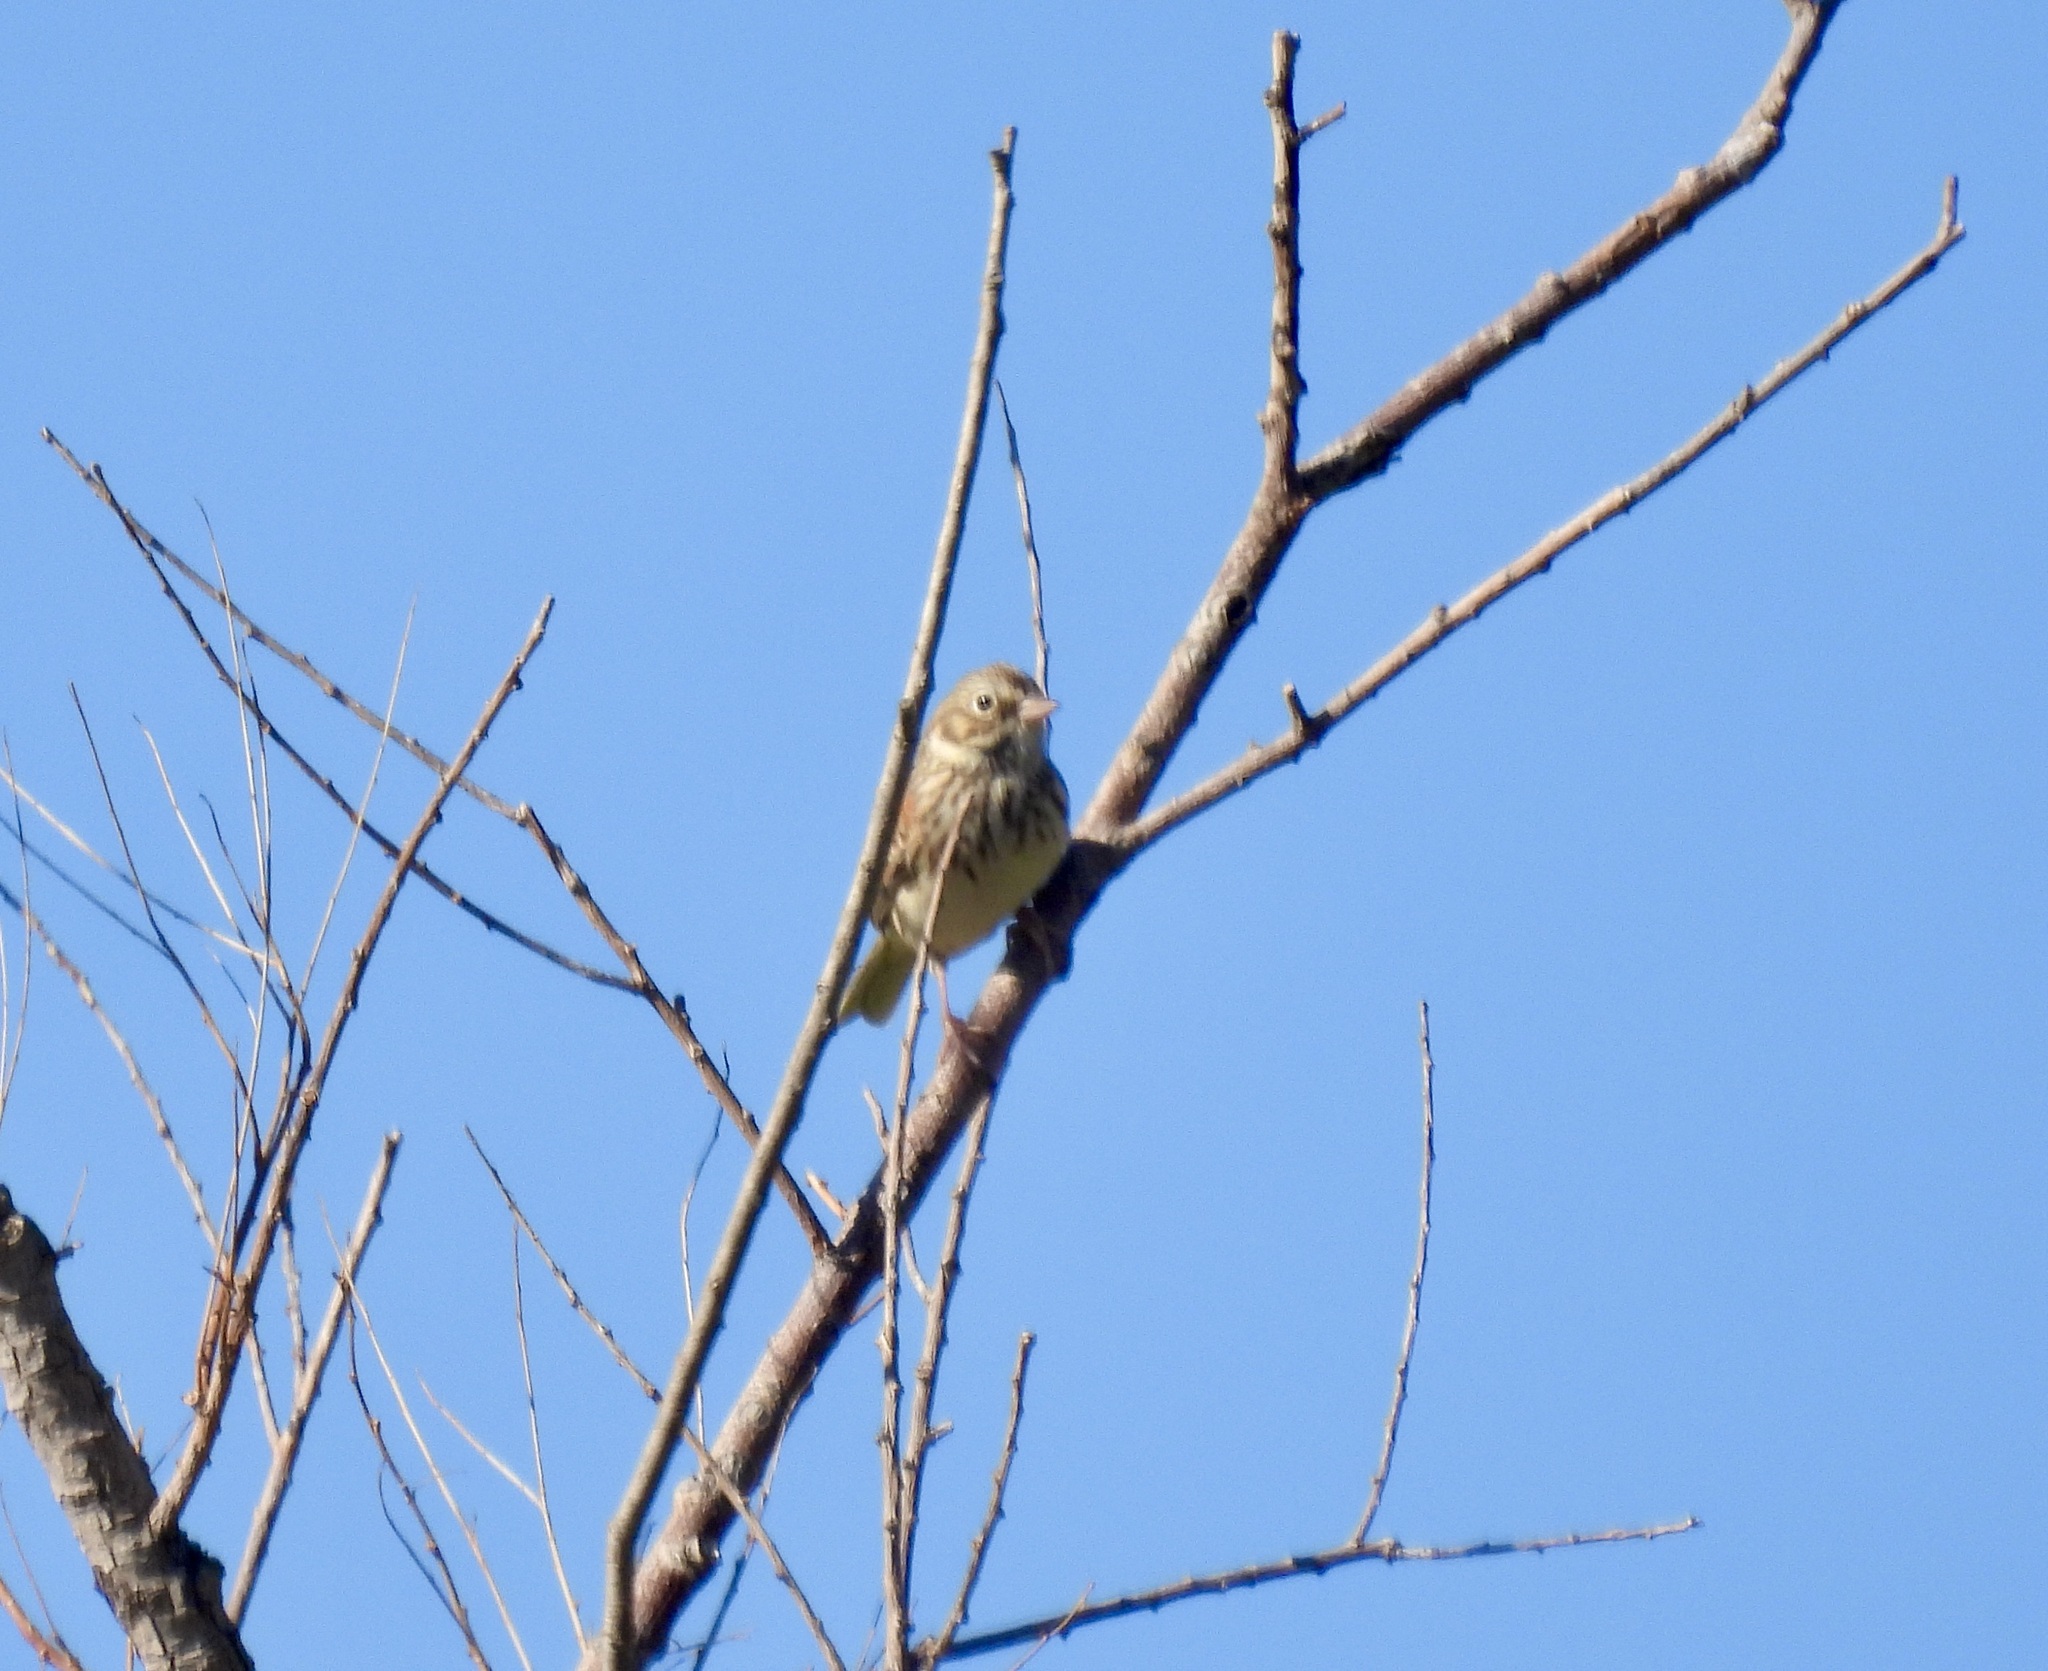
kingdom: Animalia
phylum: Chordata
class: Aves
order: Passeriformes
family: Passerellidae
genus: Pooecetes
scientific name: Pooecetes gramineus
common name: Vesper sparrow
